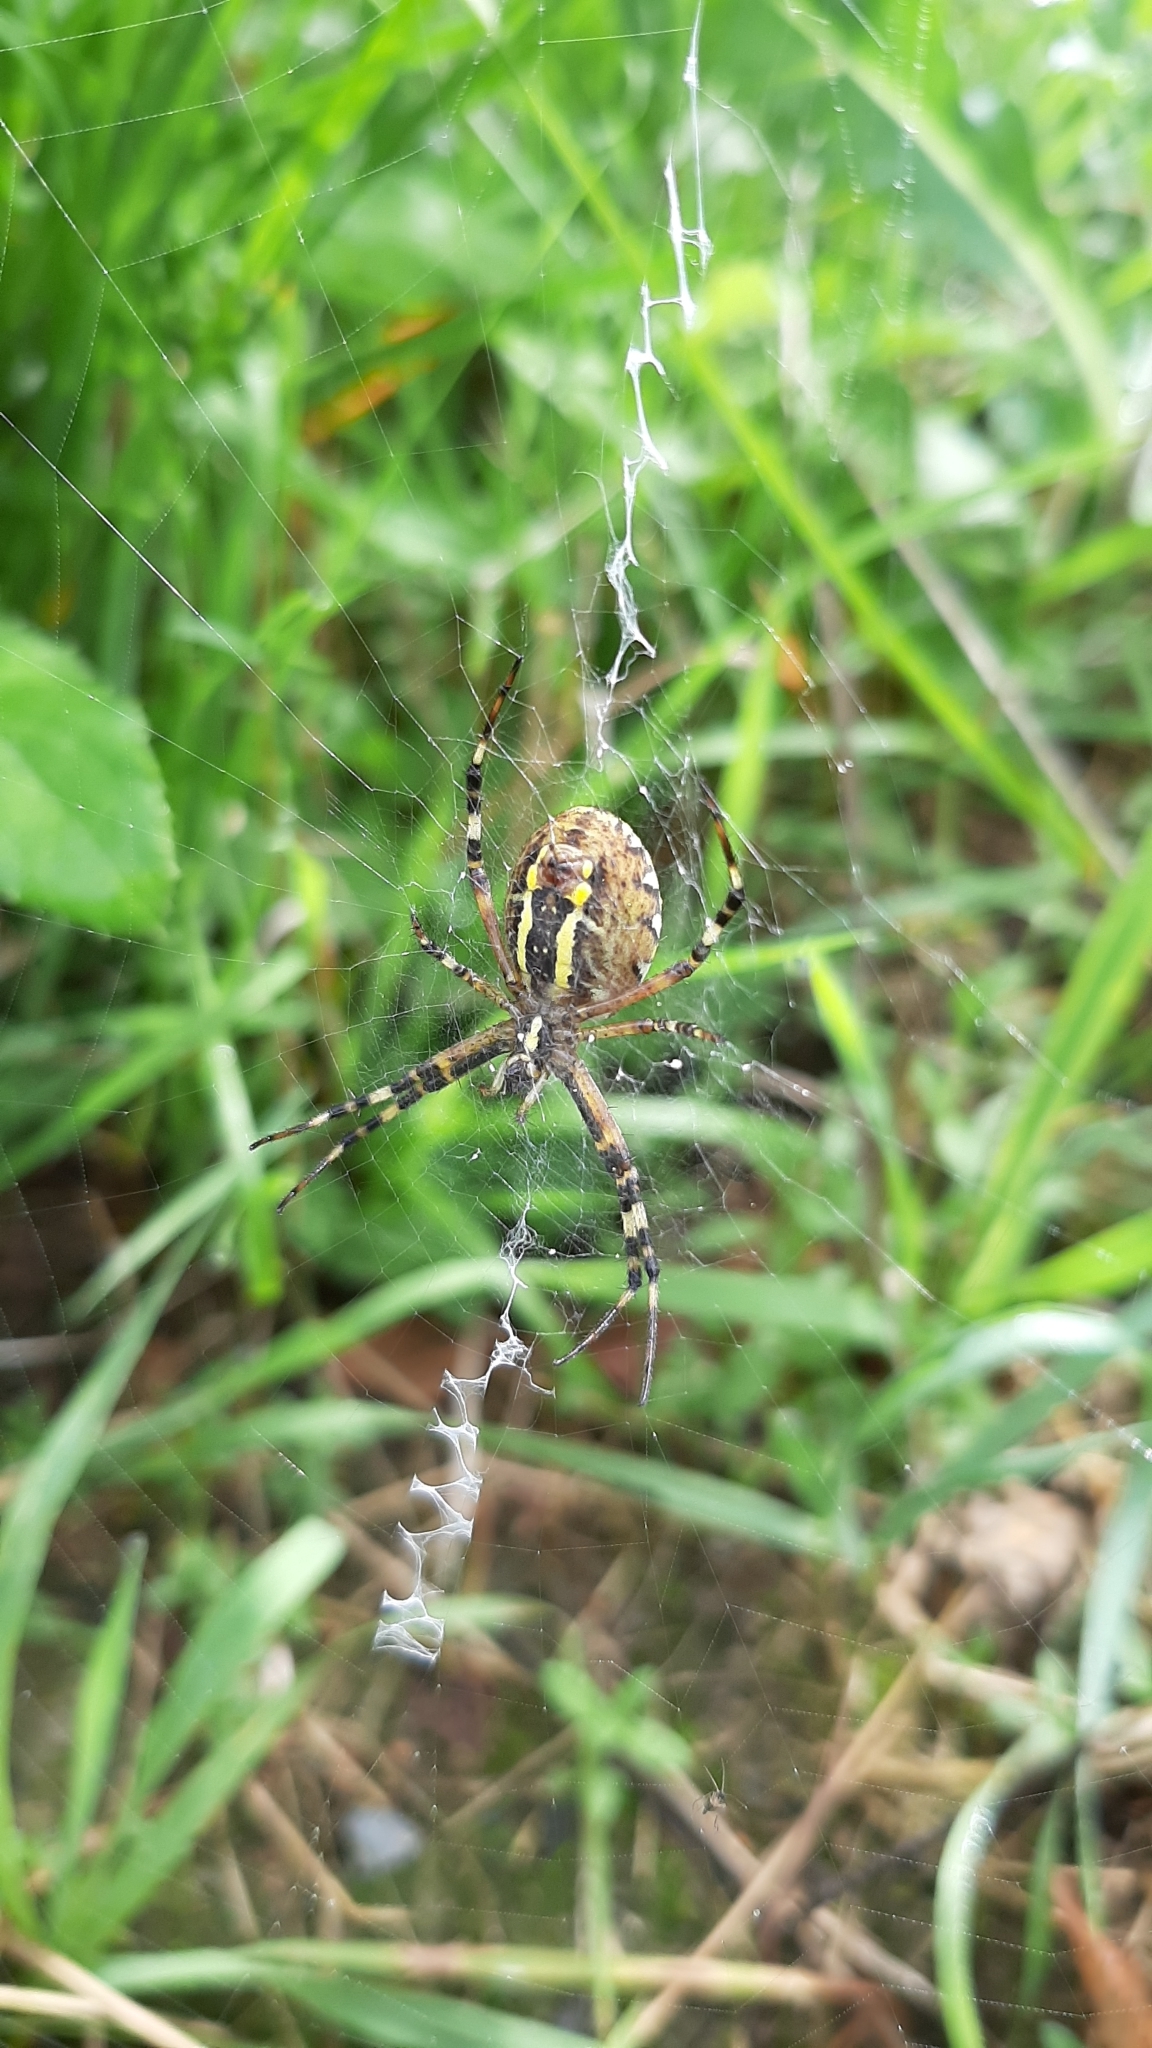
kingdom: Animalia
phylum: Arthropoda
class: Arachnida
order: Araneae
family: Araneidae
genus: Argiope
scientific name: Argiope bruennichi
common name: Wasp spider
